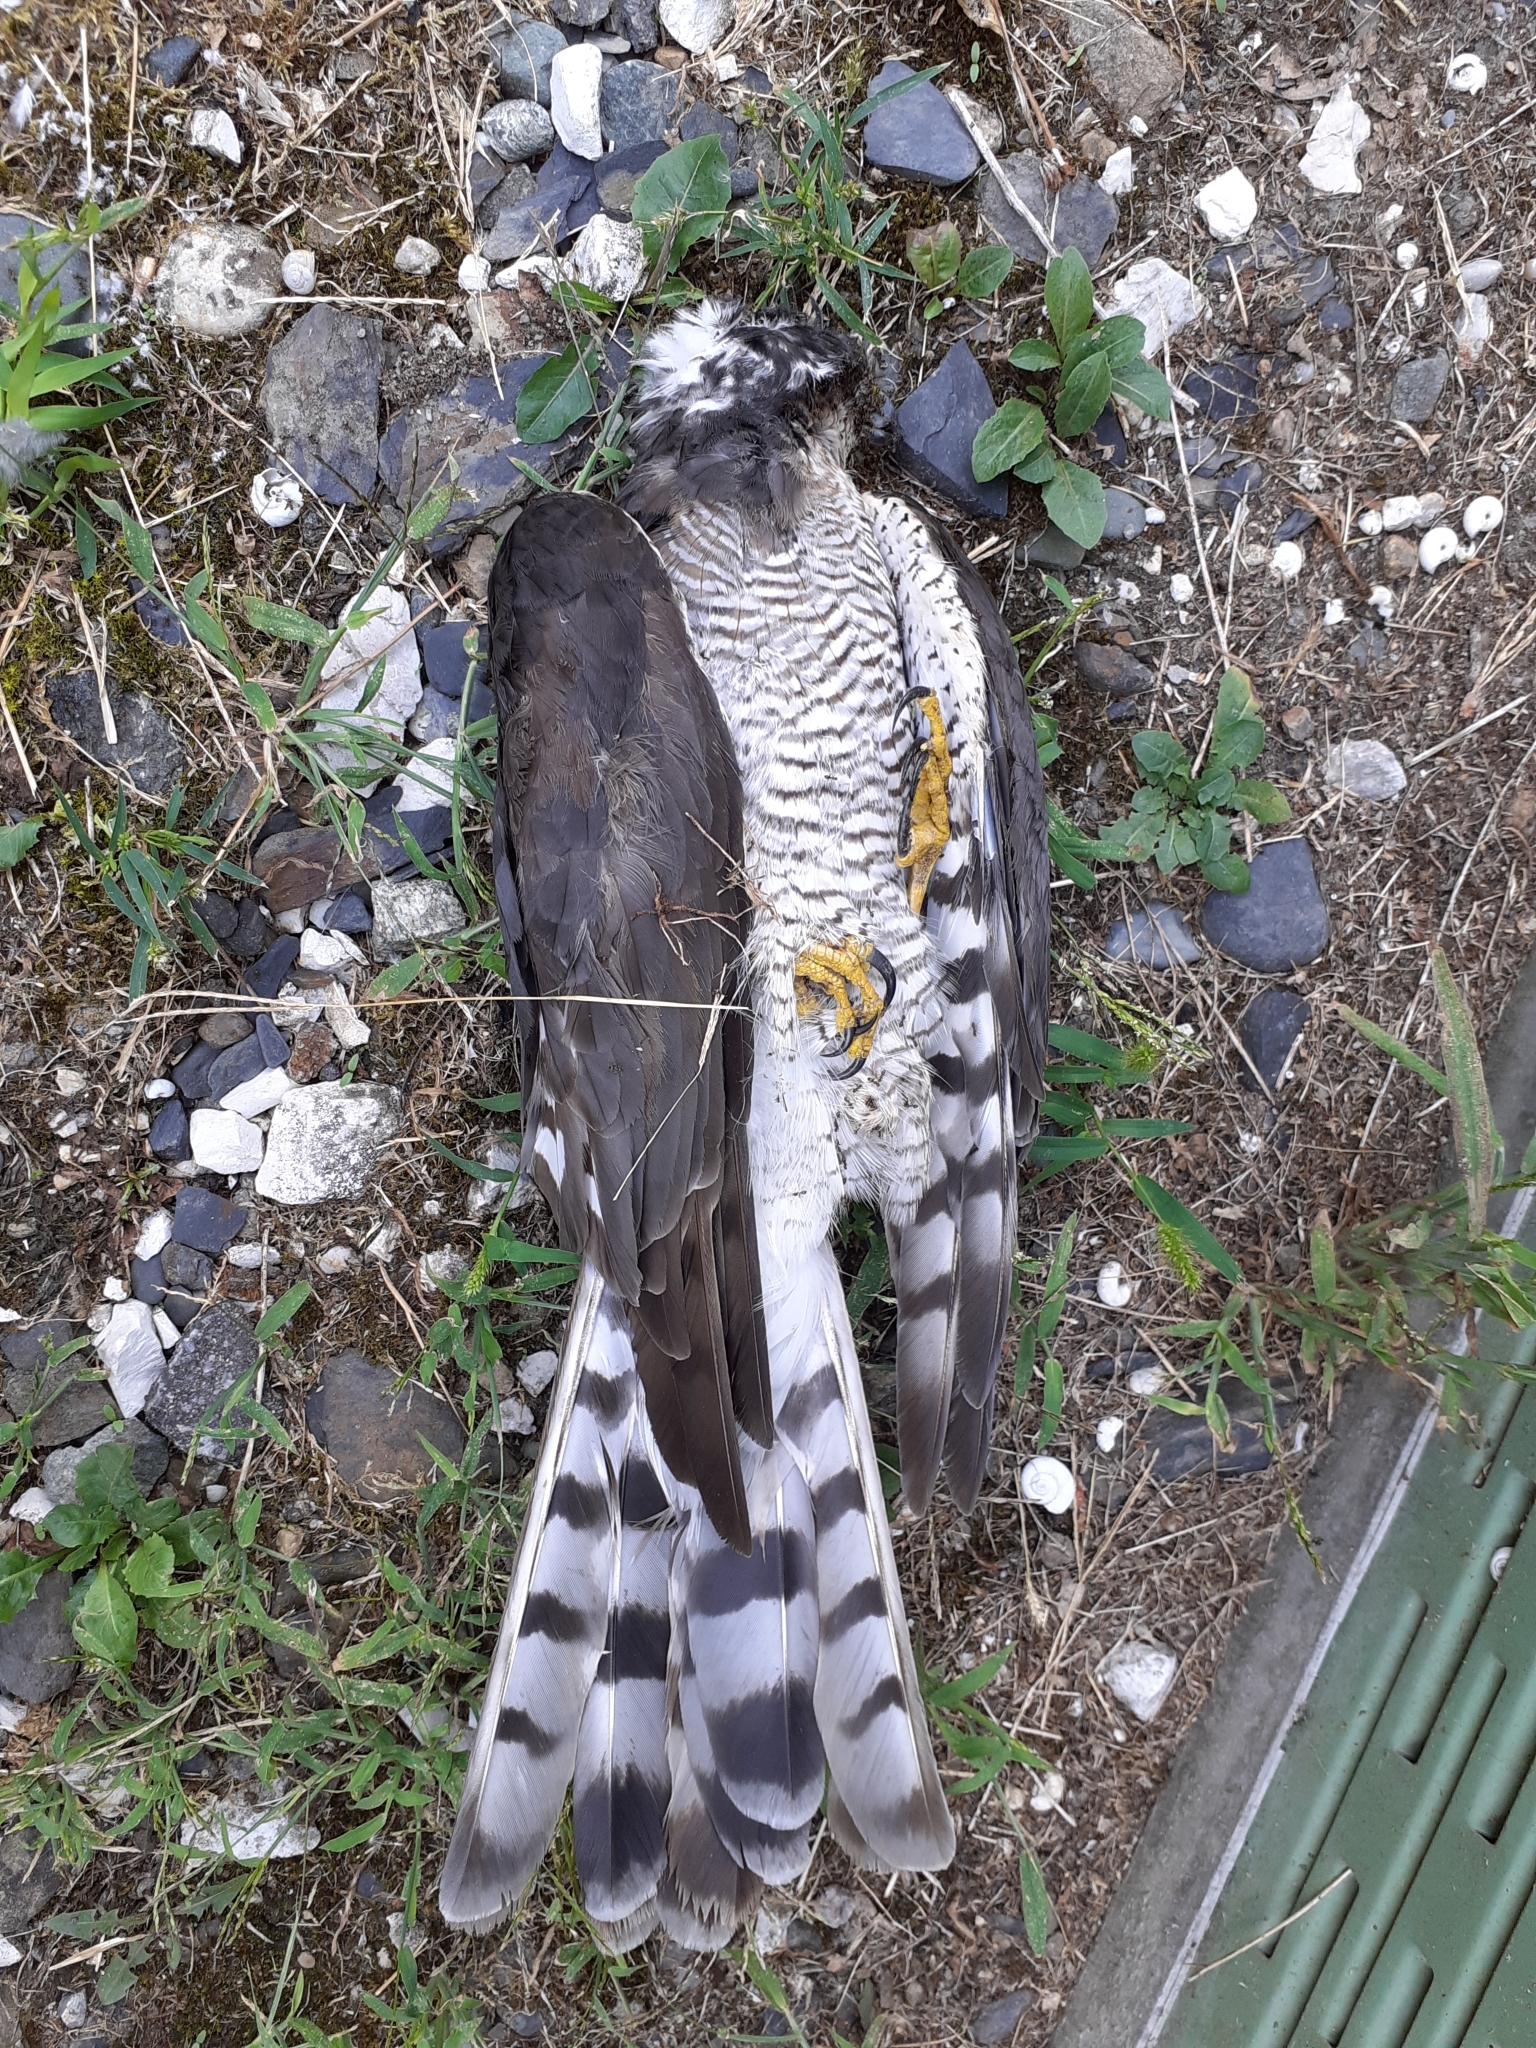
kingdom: Animalia
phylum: Chordata
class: Aves
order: Accipitriformes
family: Accipitridae
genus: Accipiter
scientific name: Accipiter nisus
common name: Eurasian sparrowhawk
